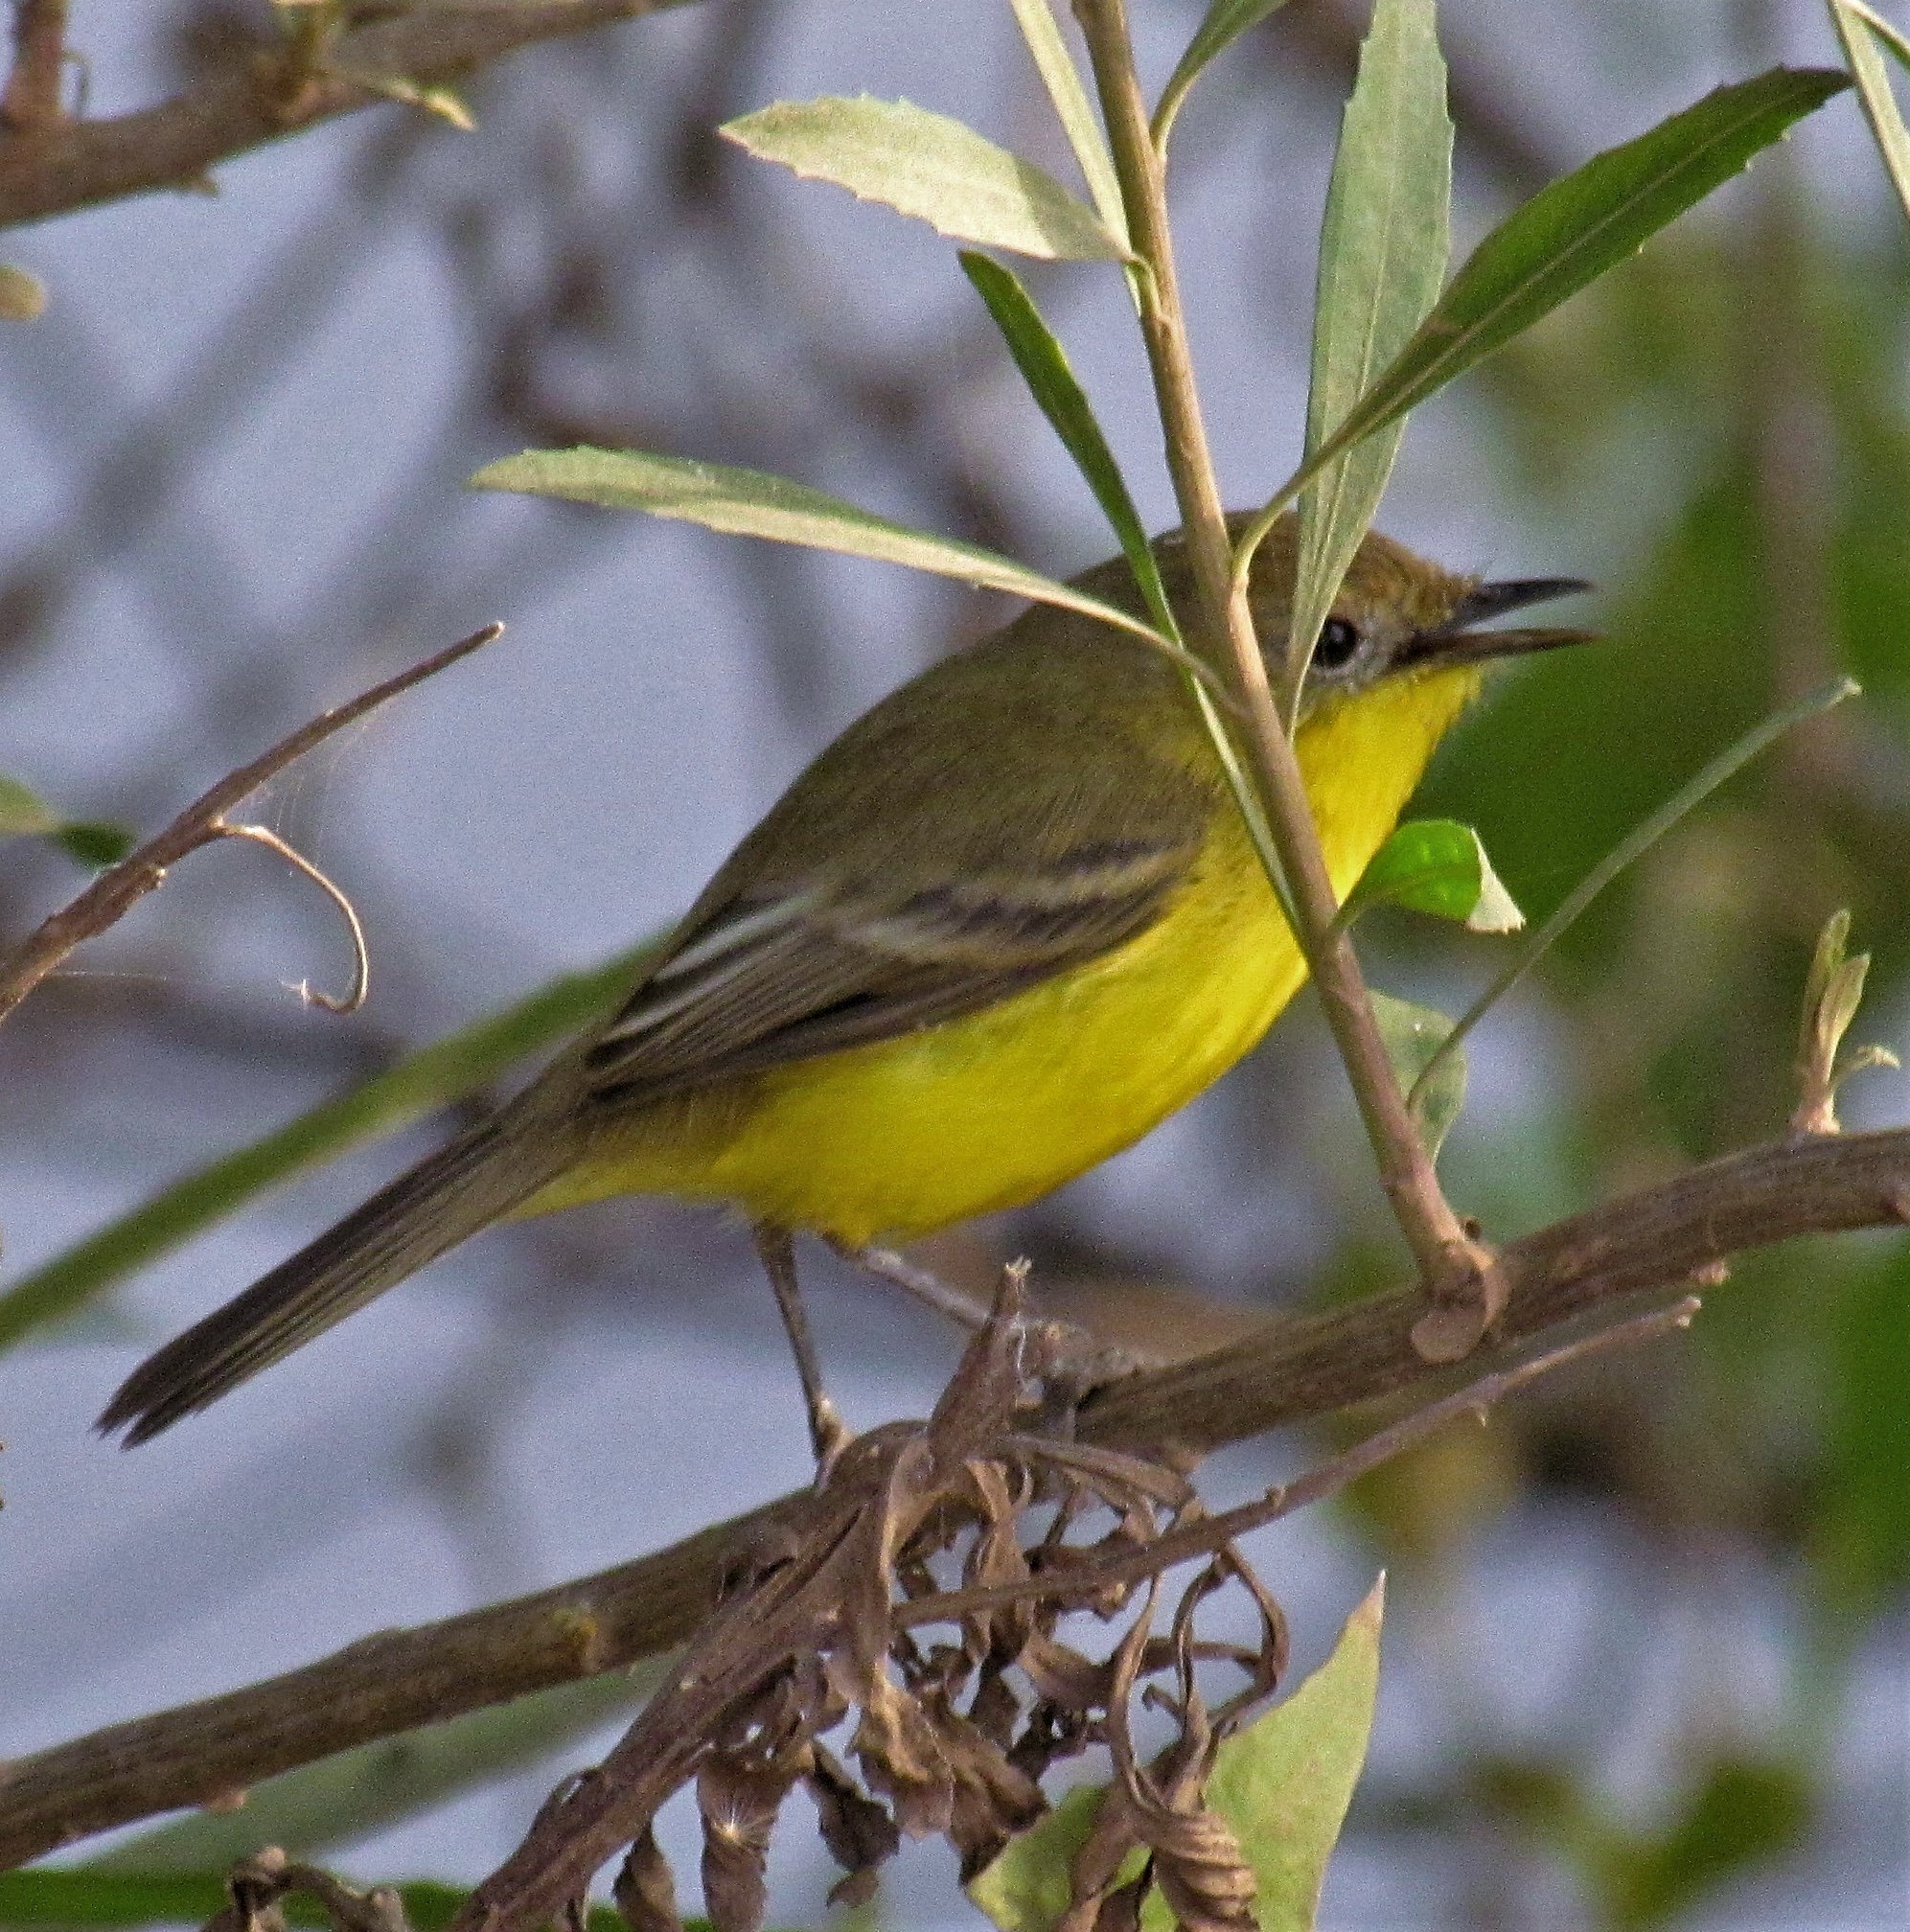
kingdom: Animalia
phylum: Chordata
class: Aves
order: Passeriformes
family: Tyrannidae
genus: Pseudocolopteryx
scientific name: Pseudocolopteryx dinelliana
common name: Dinelli's doradito
